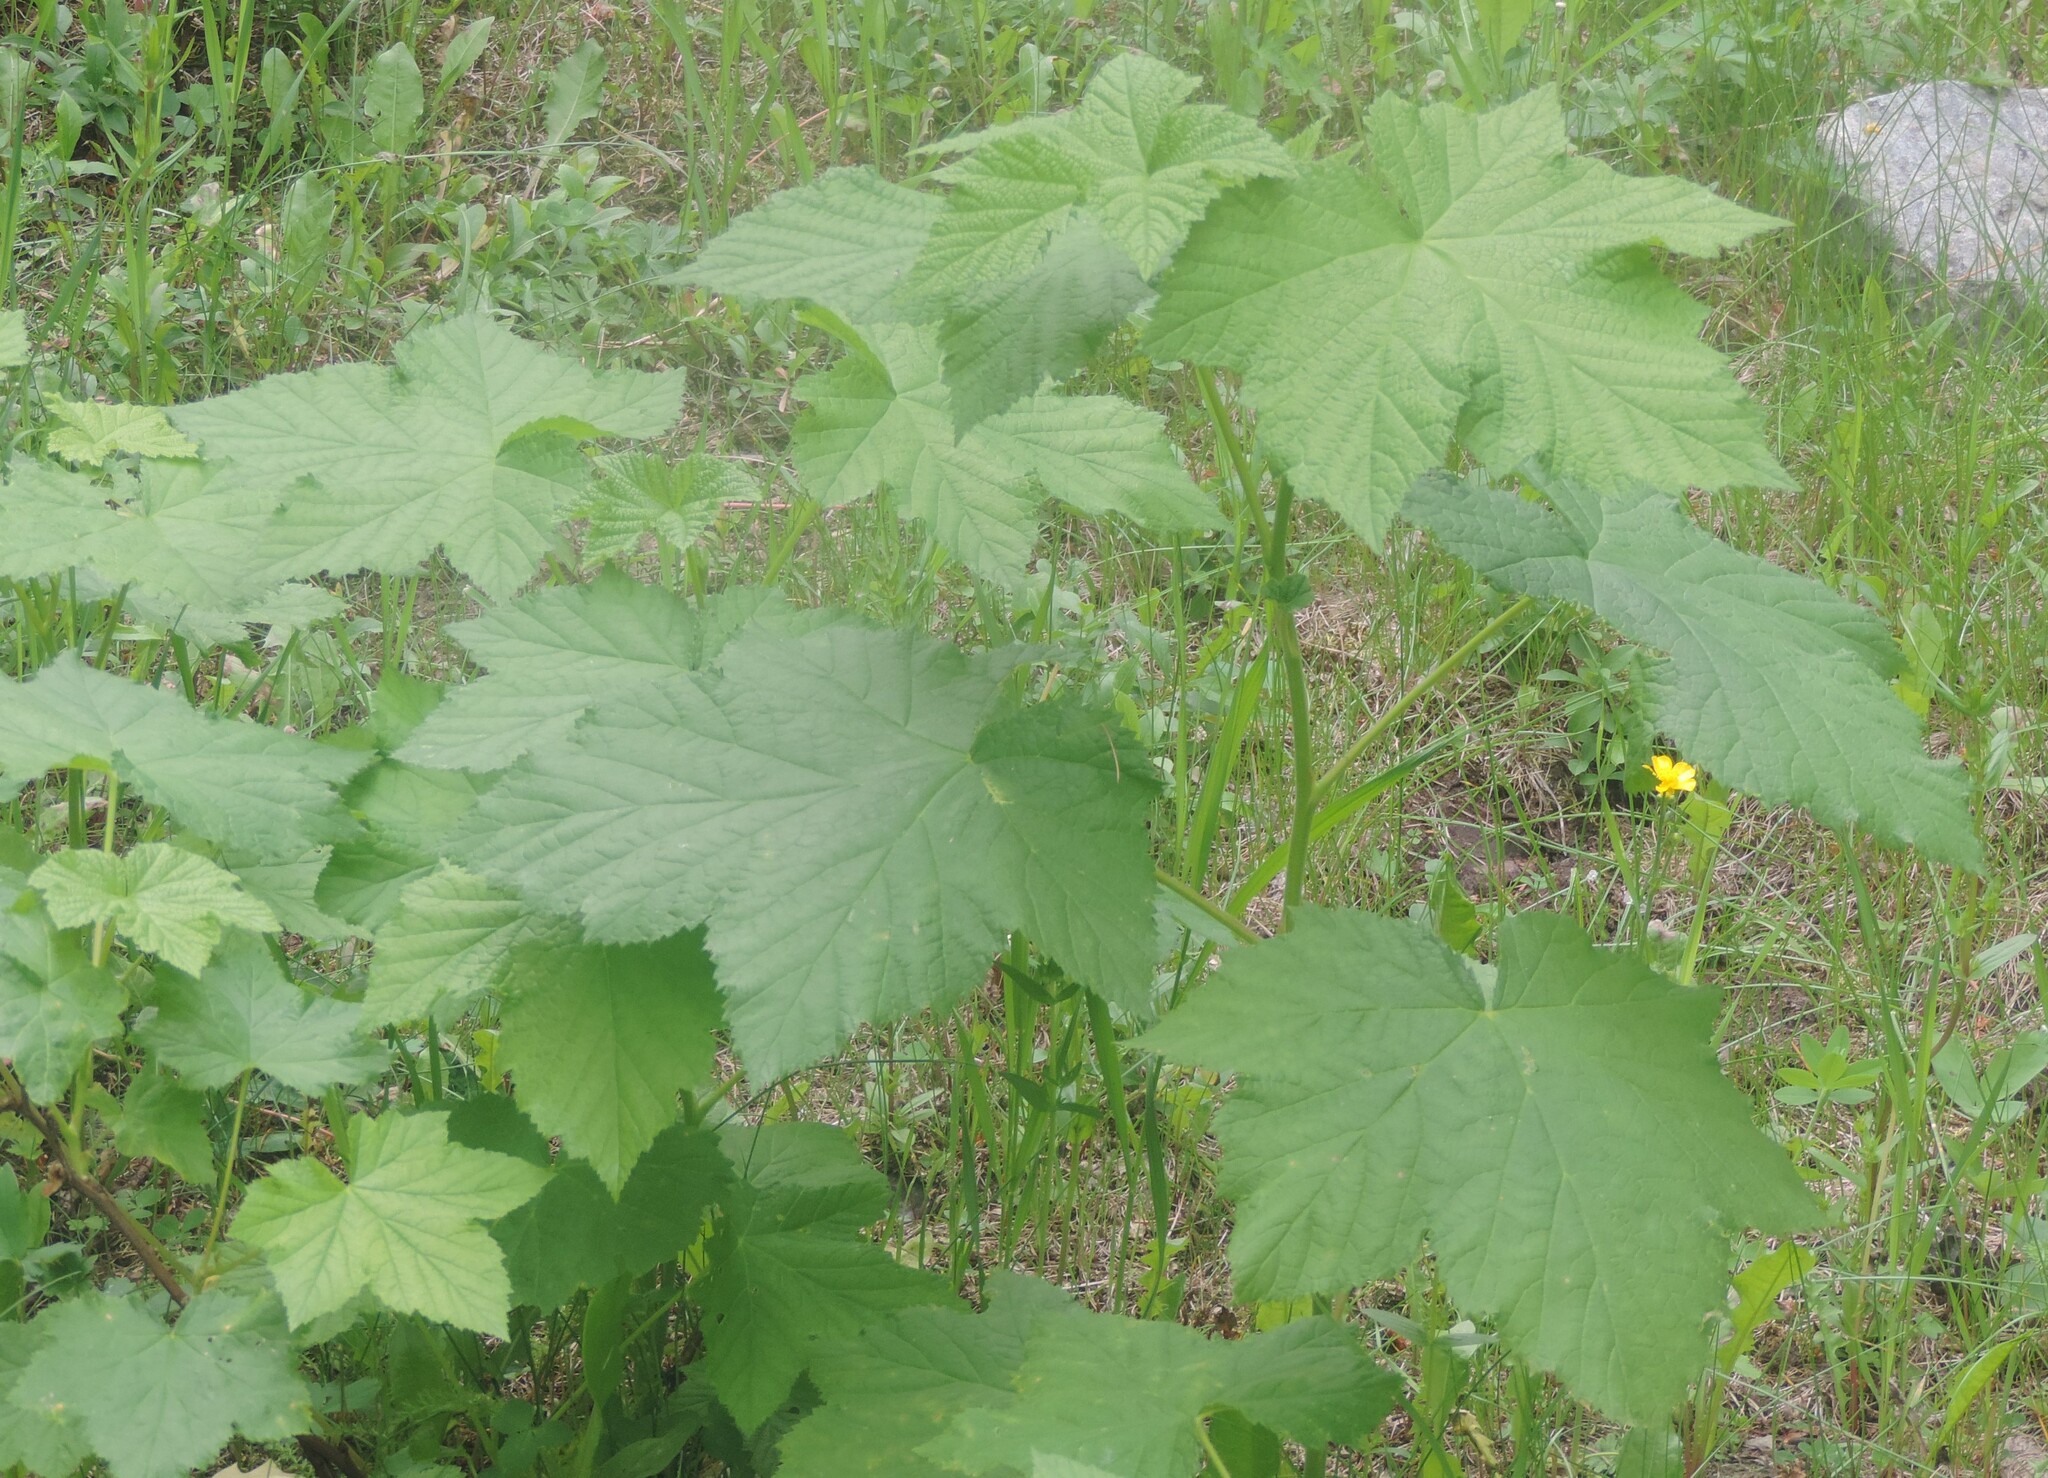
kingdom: Plantae
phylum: Tracheophyta
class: Magnoliopsida
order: Rosales
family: Rosaceae
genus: Rubus
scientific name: Rubus parviflorus
